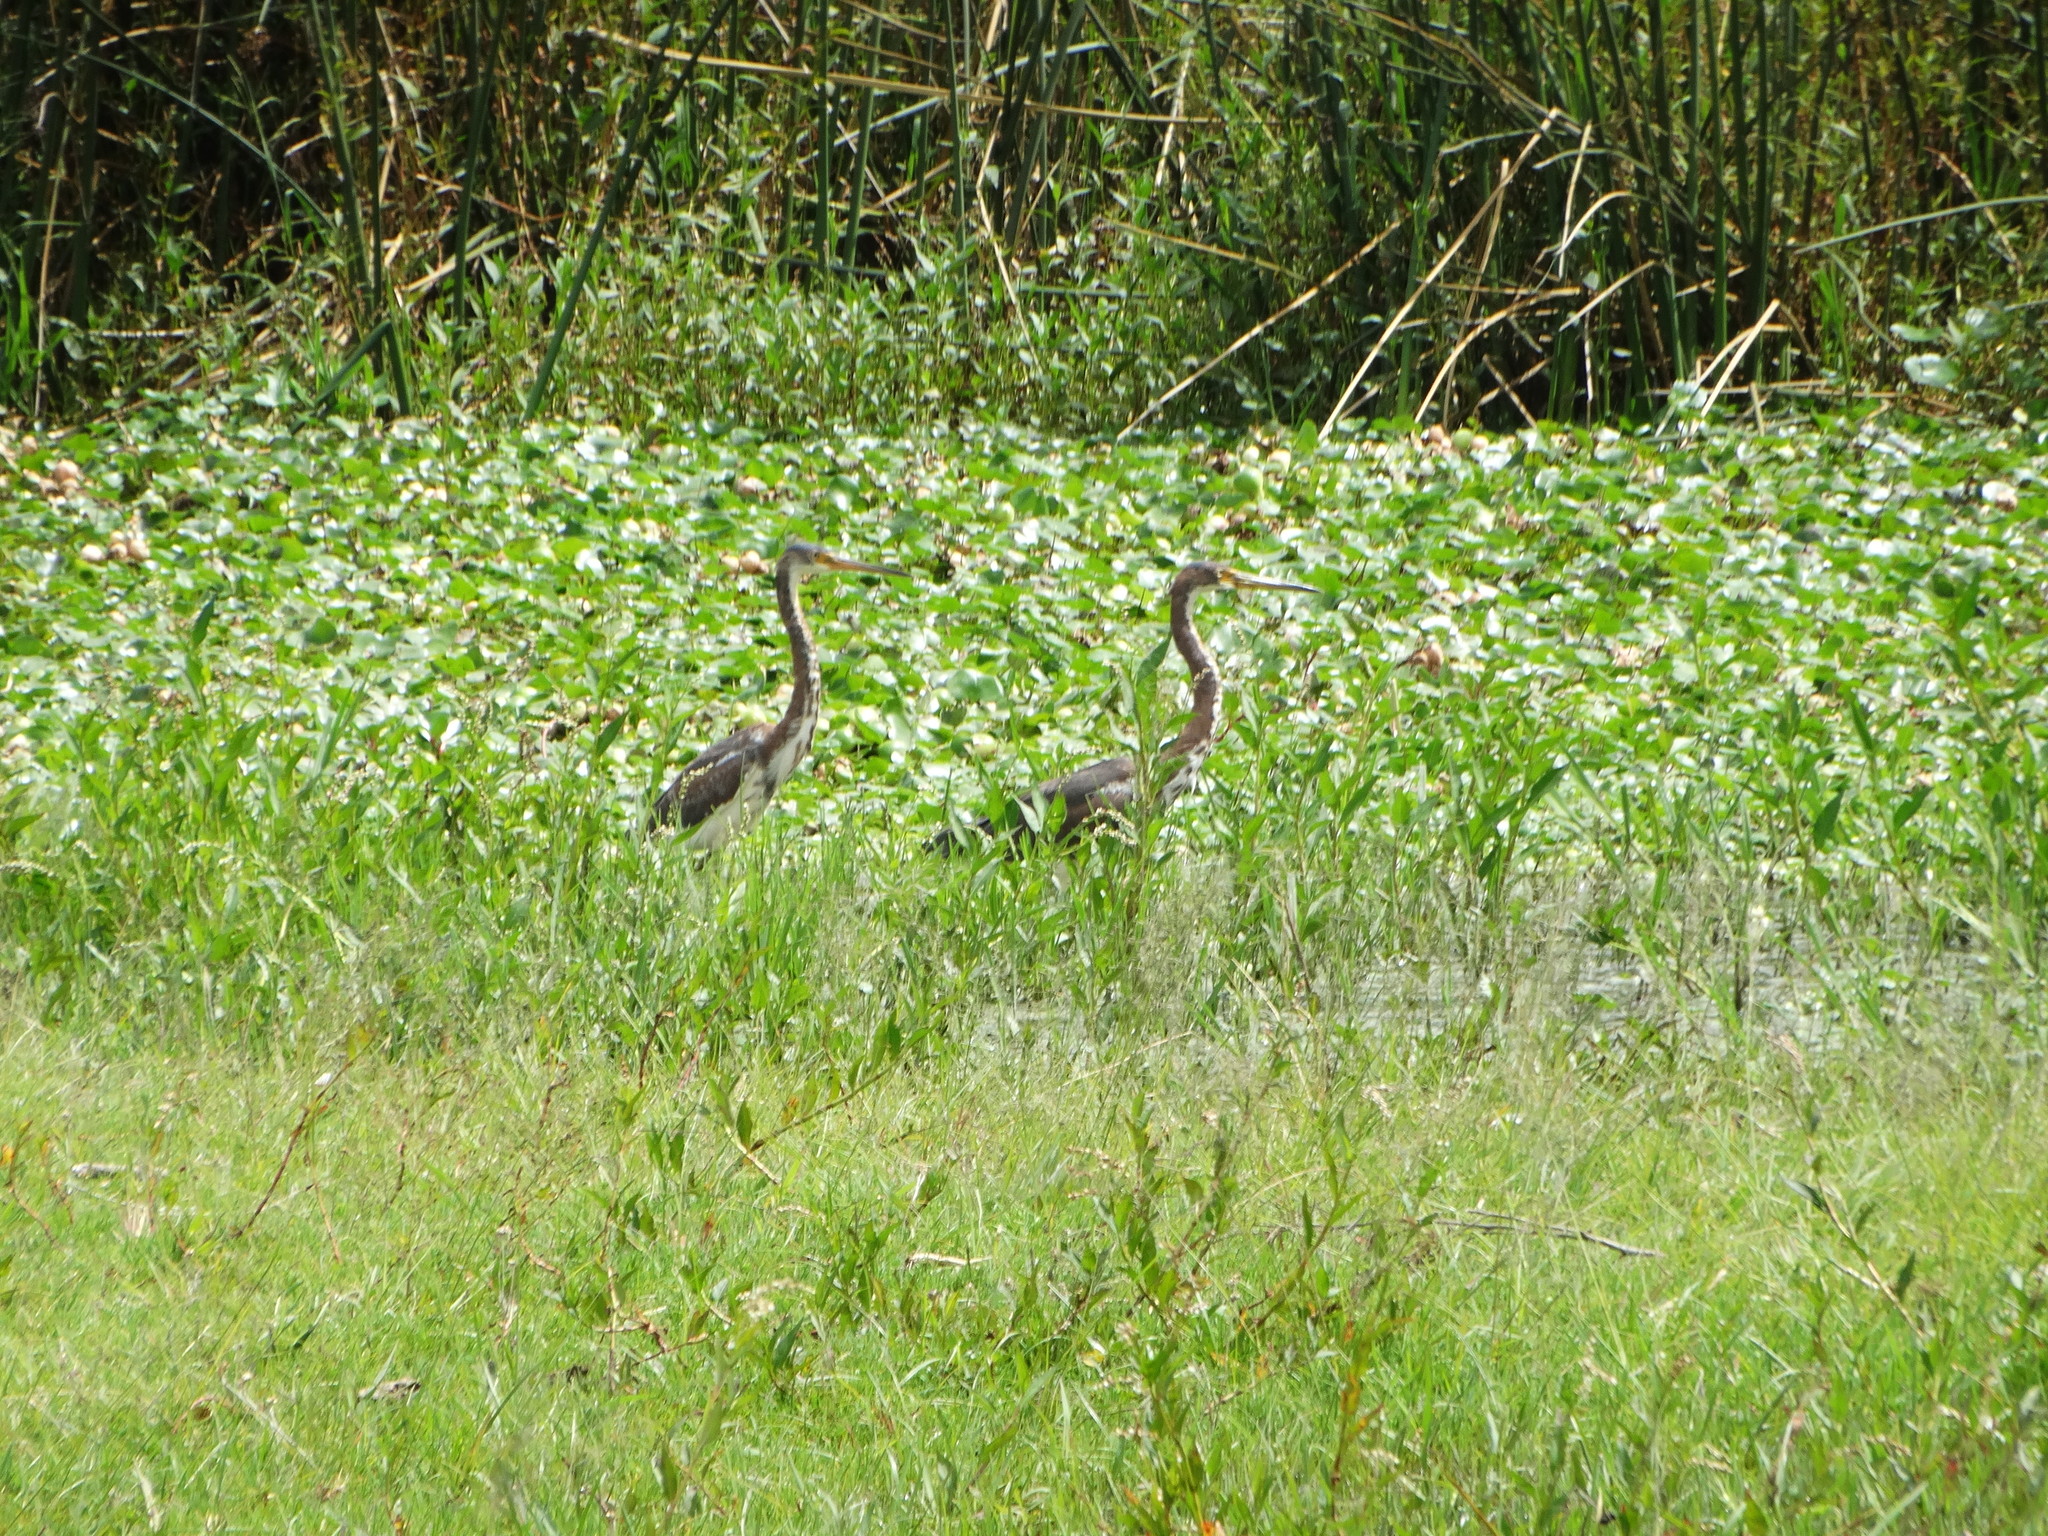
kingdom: Animalia
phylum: Chordata
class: Aves
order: Pelecaniformes
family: Ardeidae
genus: Egretta
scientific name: Egretta tricolor
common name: Tricolored heron
